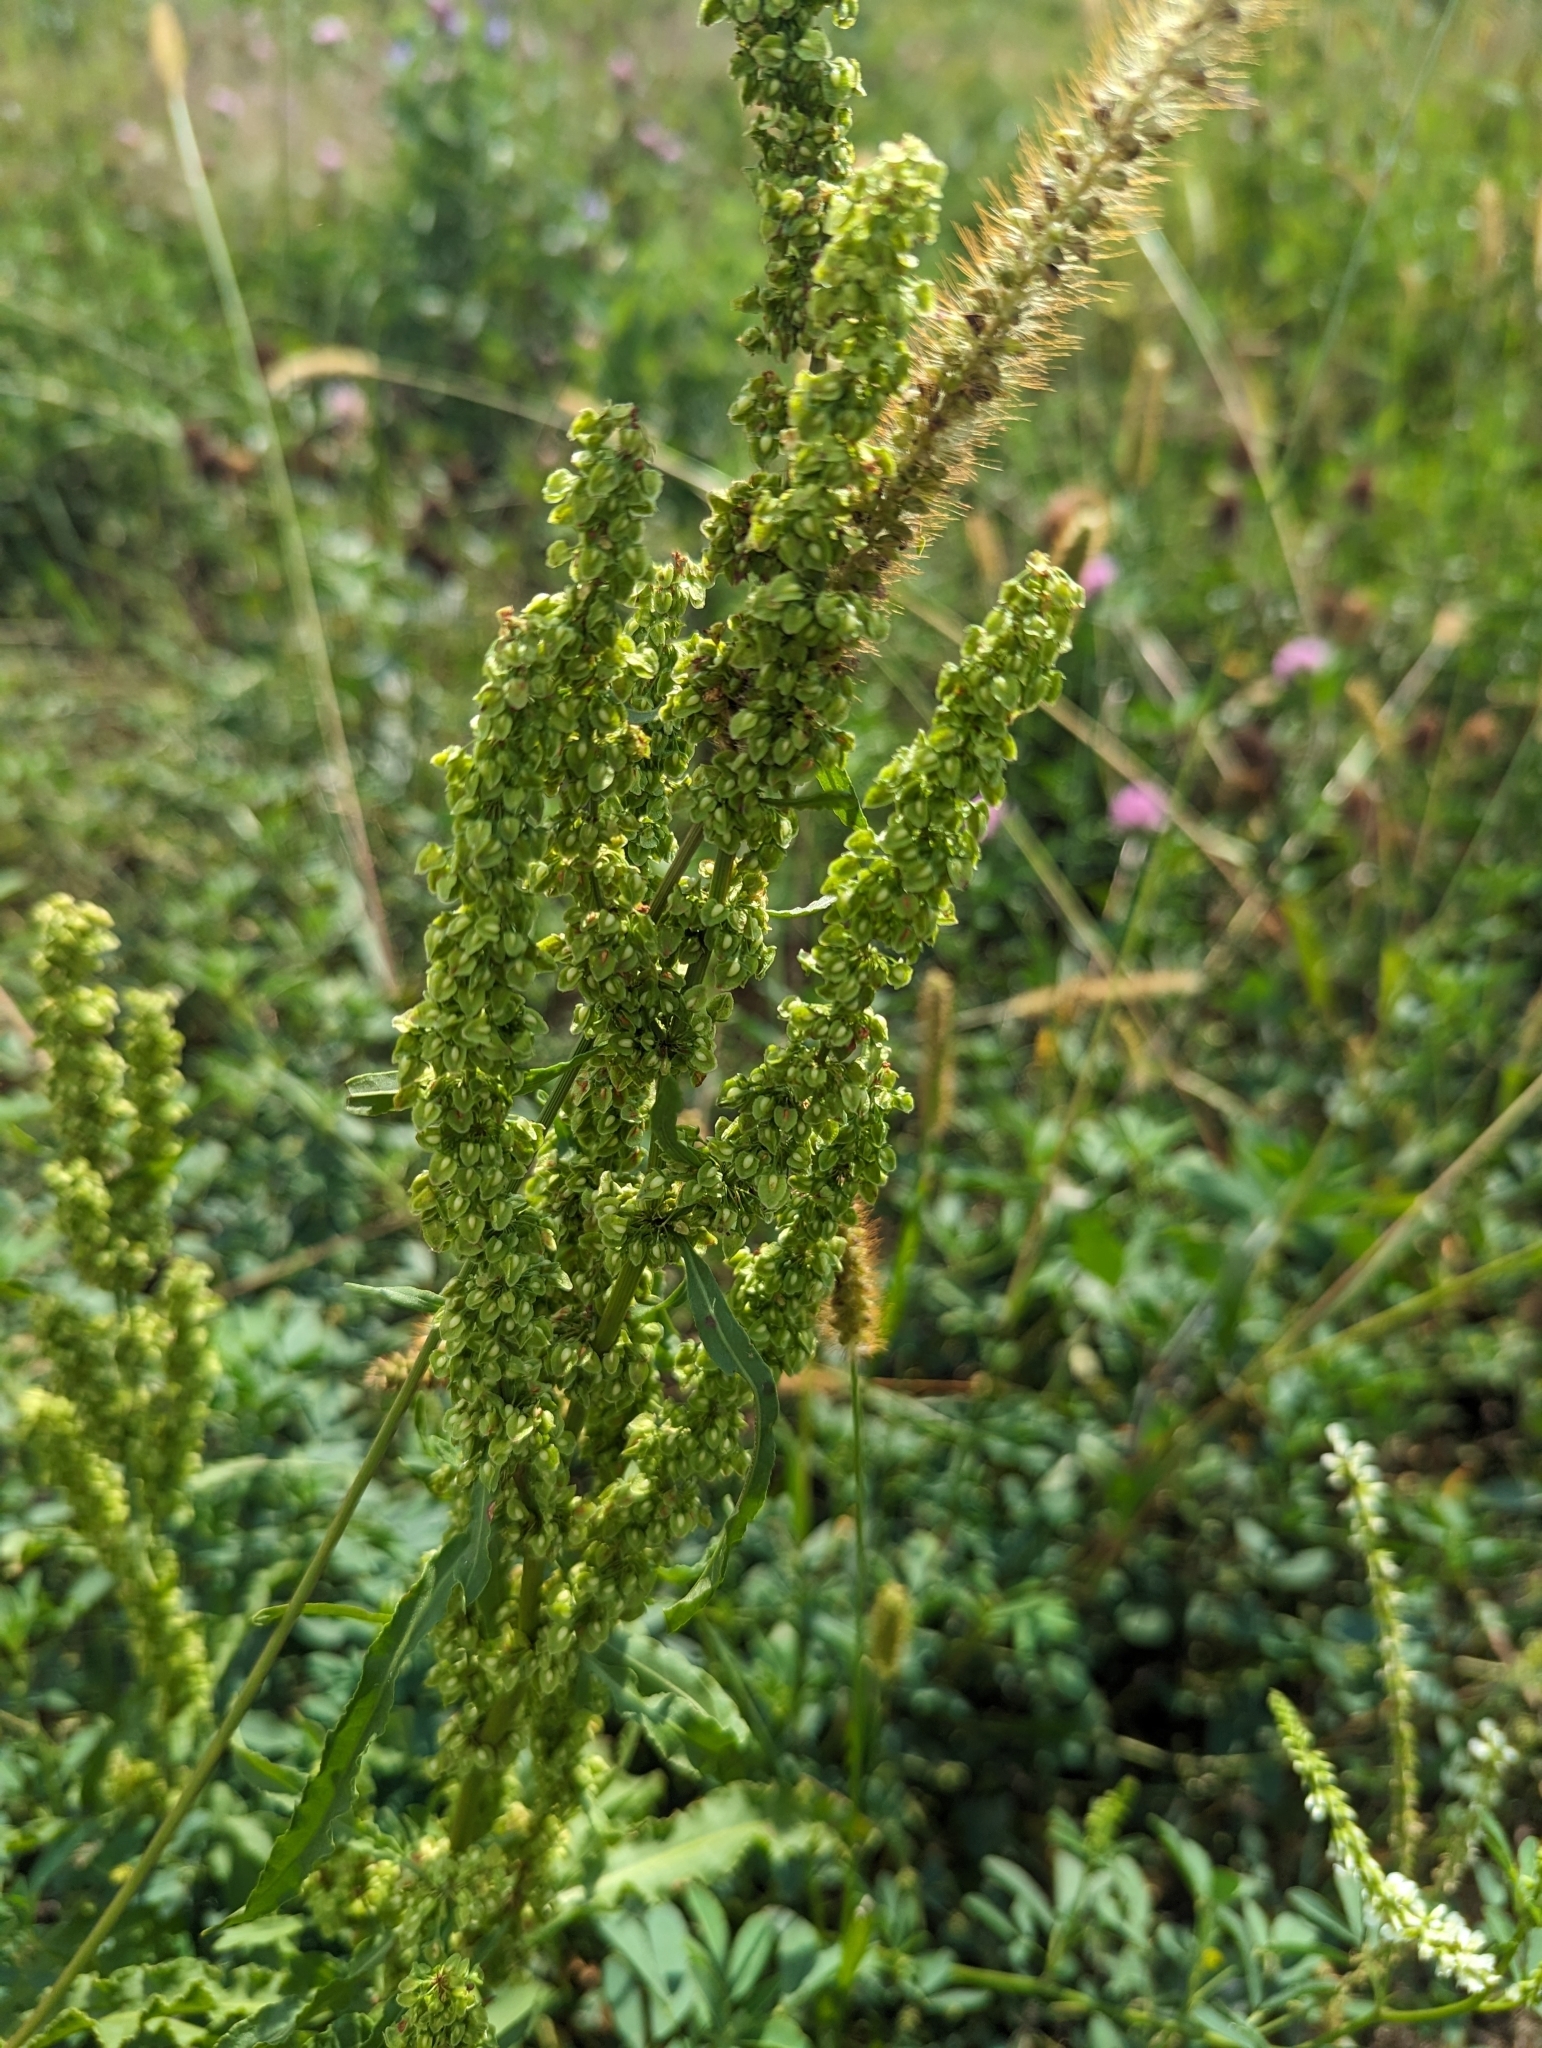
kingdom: Plantae
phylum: Tracheophyta
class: Magnoliopsida
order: Caryophyllales
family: Polygonaceae
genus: Rumex
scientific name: Rumex crispus
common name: Curled dock
